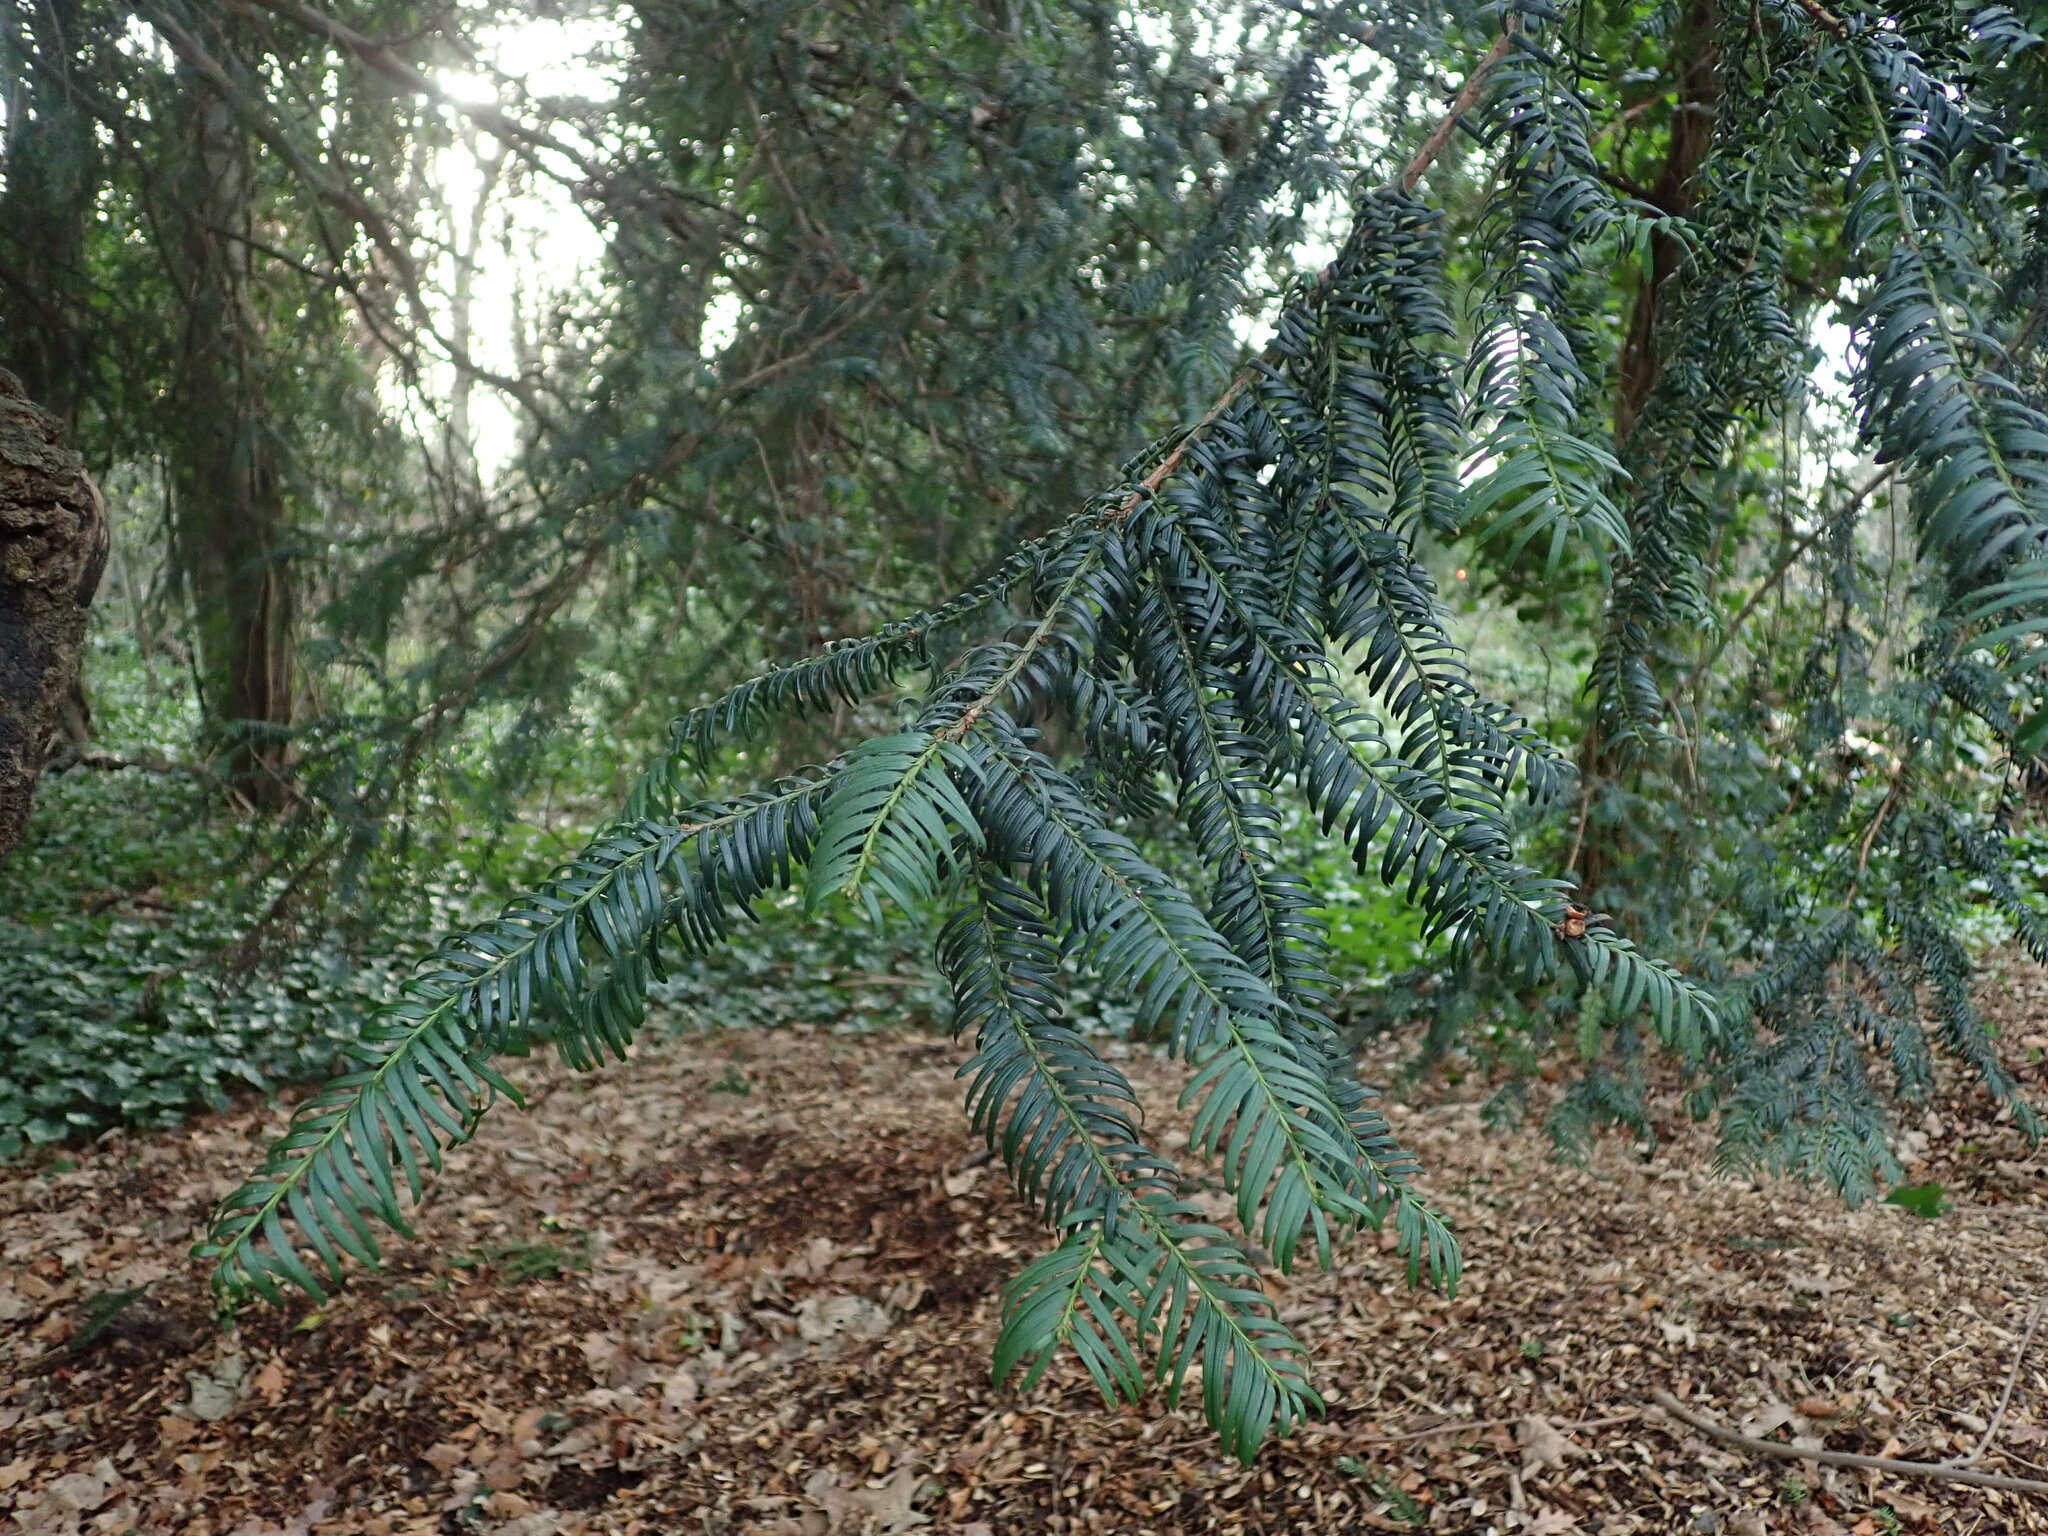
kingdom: Plantae
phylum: Tracheophyta
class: Pinopsida
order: Pinales
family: Taxaceae
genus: Taxus
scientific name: Taxus baccata
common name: Yew
